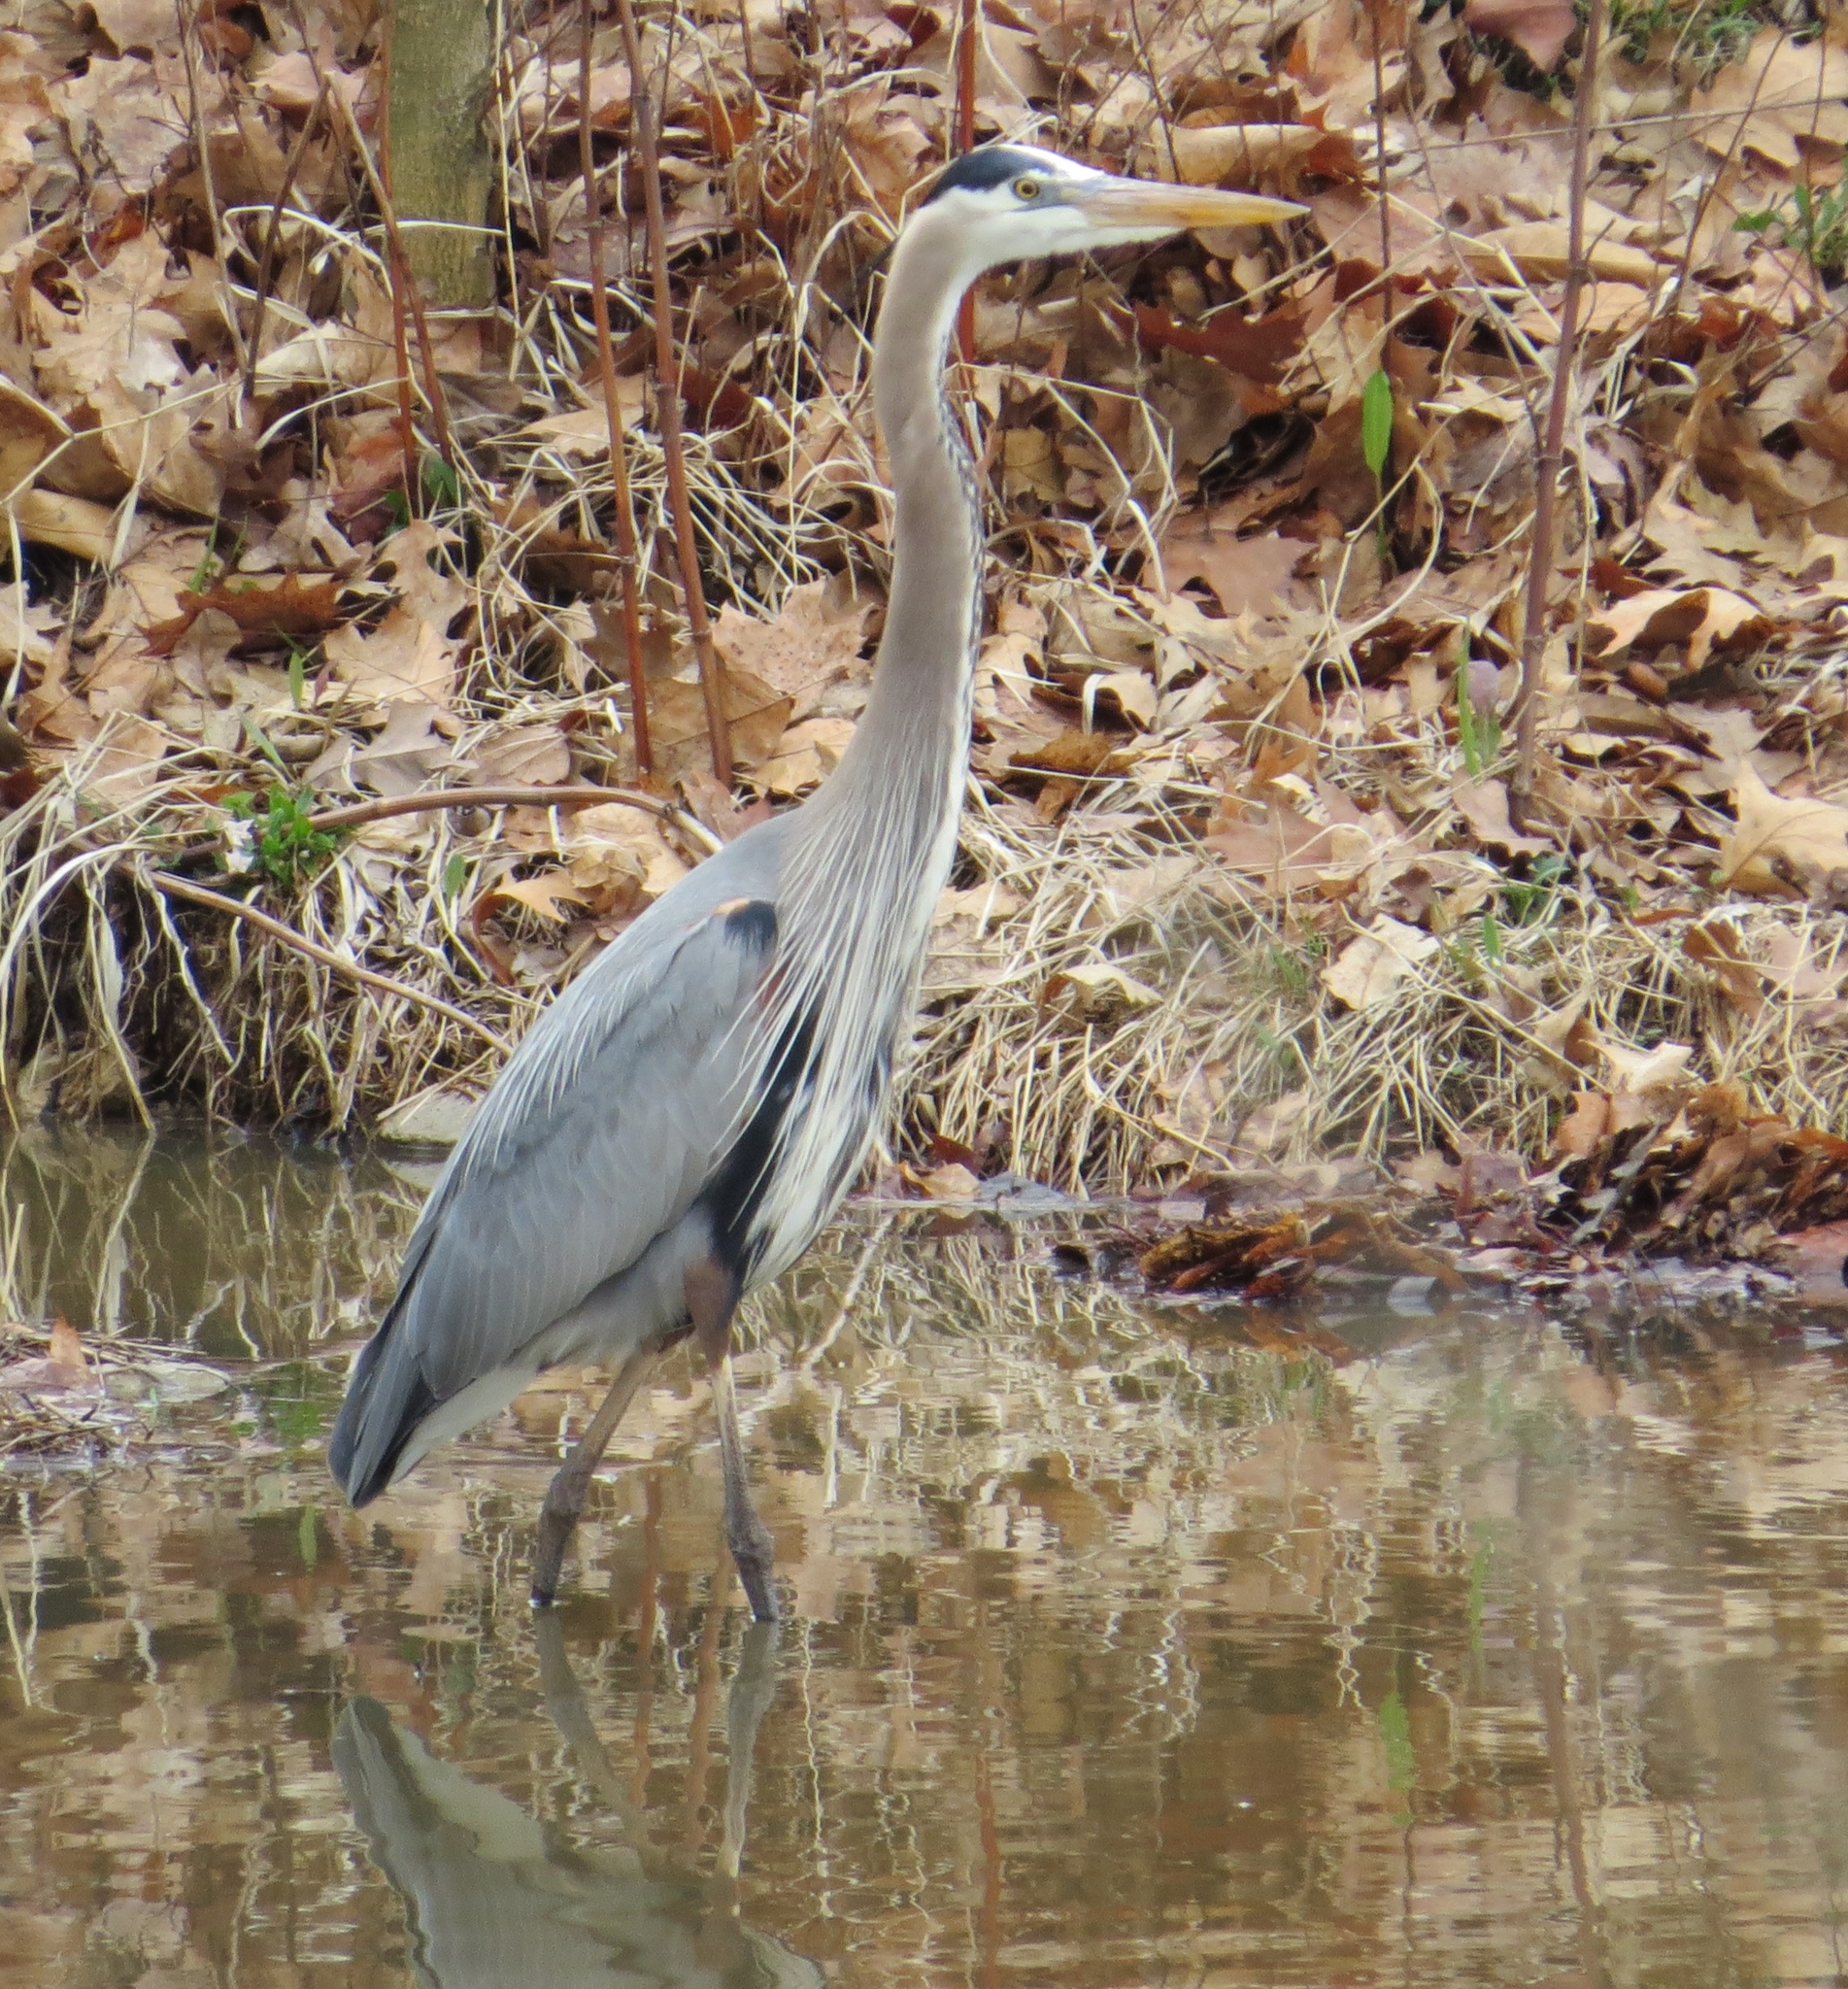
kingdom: Animalia
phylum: Chordata
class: Aves
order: Pelecaniformes
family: Ardeidae
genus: Ardea
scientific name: Ardea herodias
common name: Great blue heron
